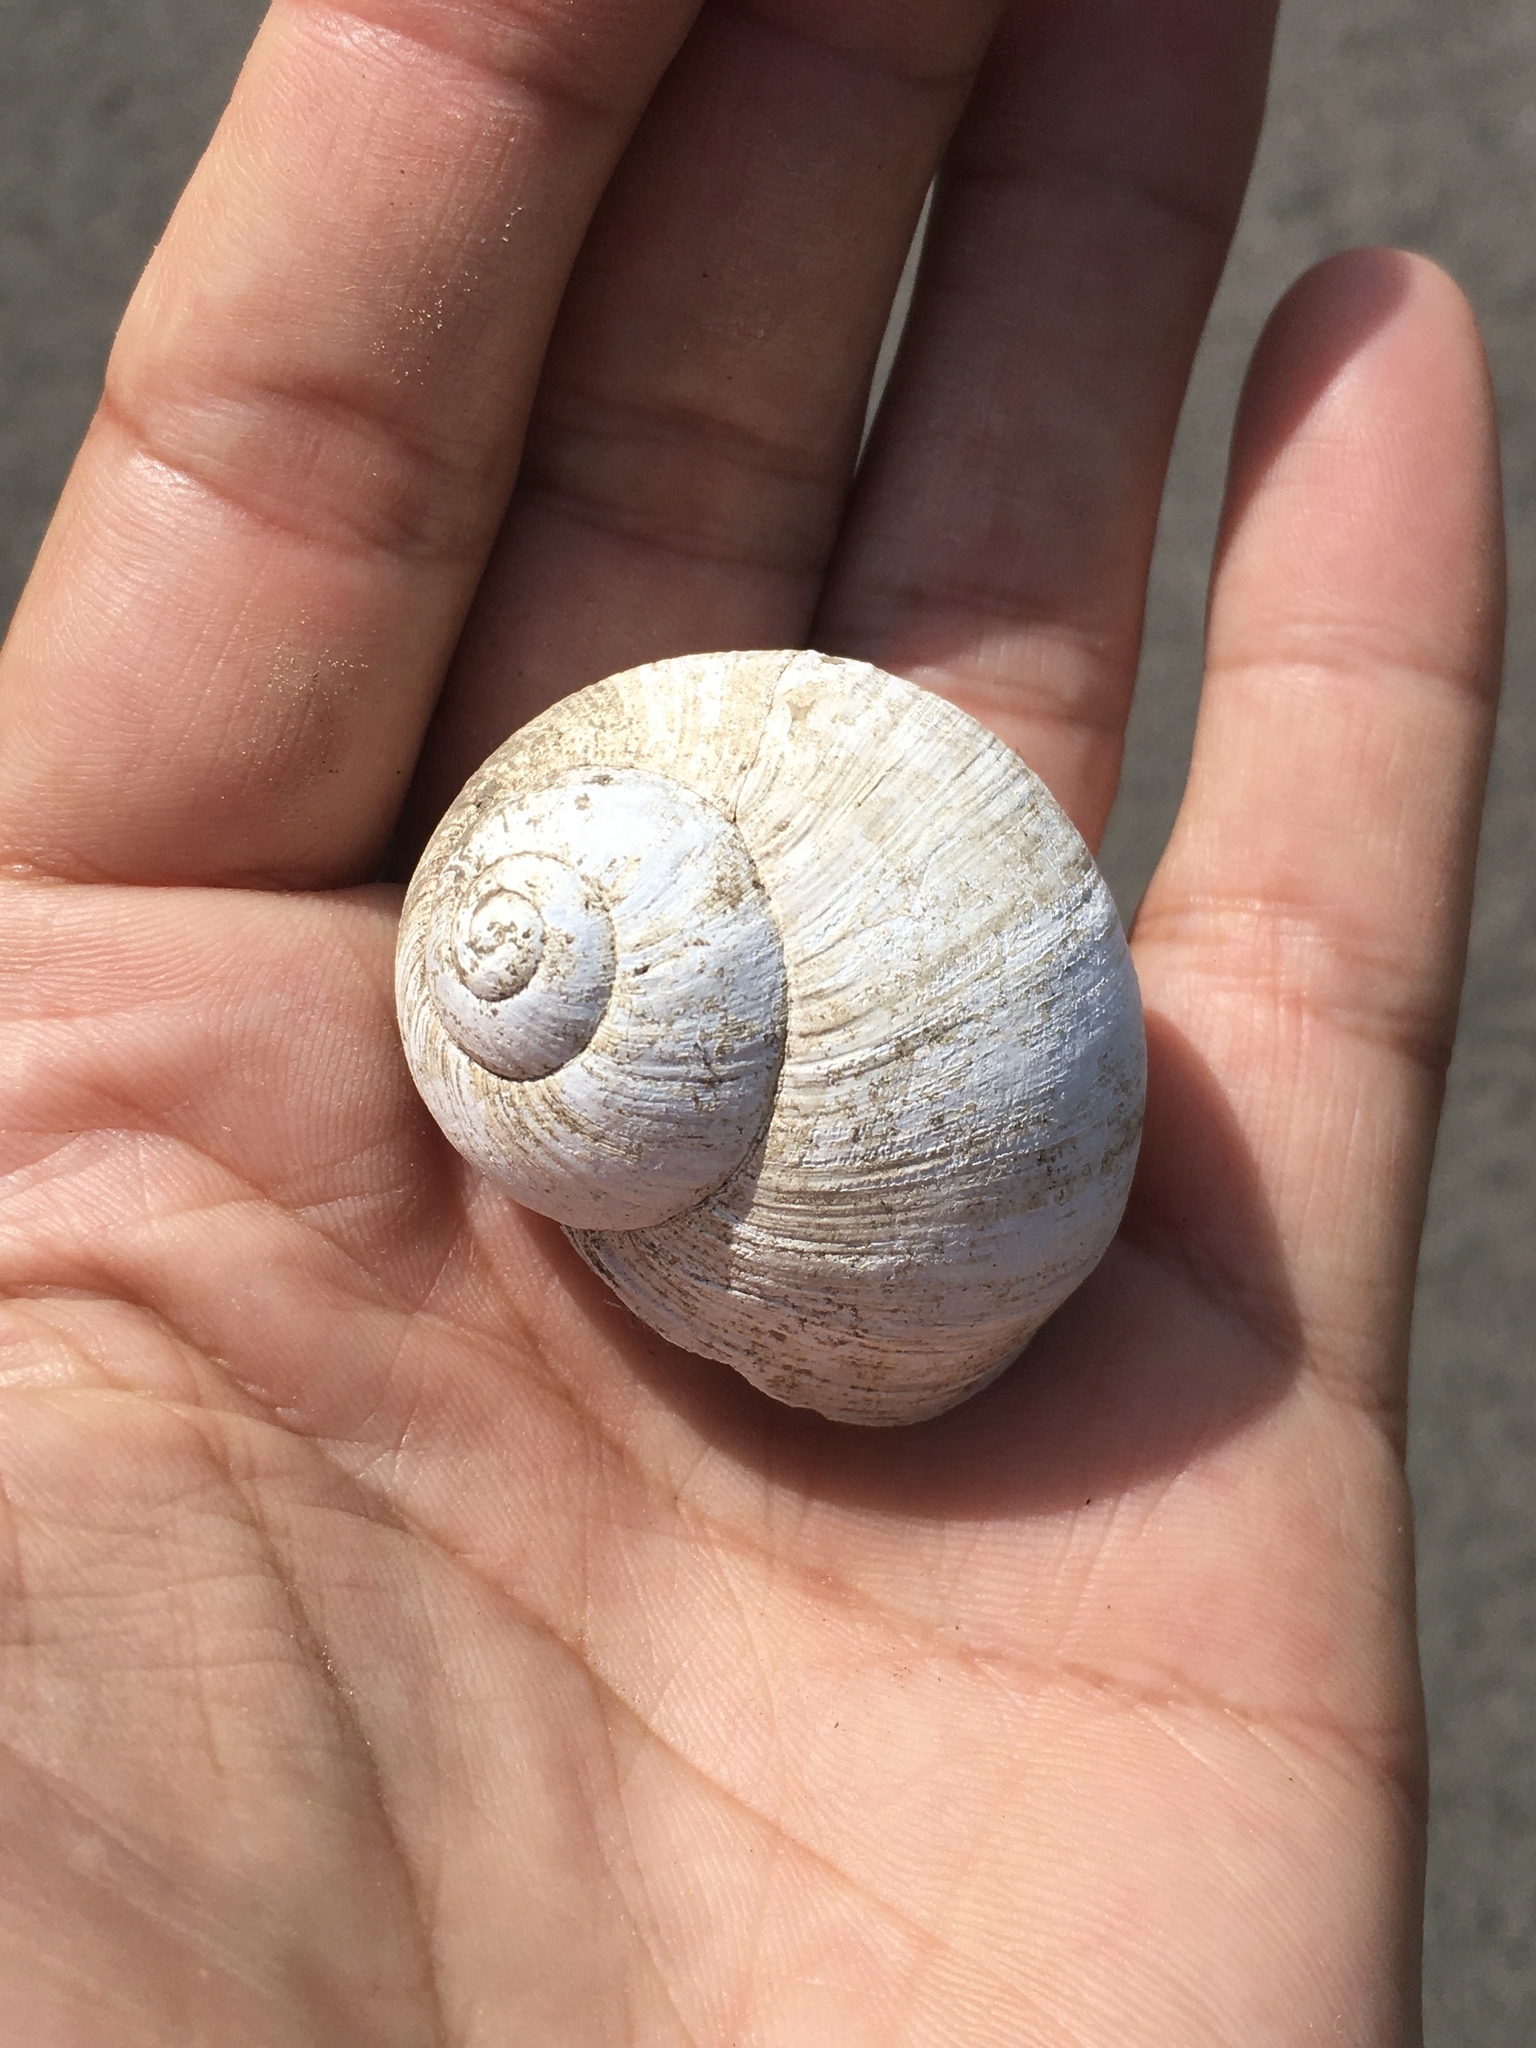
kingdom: Animalia
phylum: Mollusca
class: Gastropoda
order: Stylommatophora
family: Helicidae
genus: Helix
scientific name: Helix pomatia
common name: Roman snail
